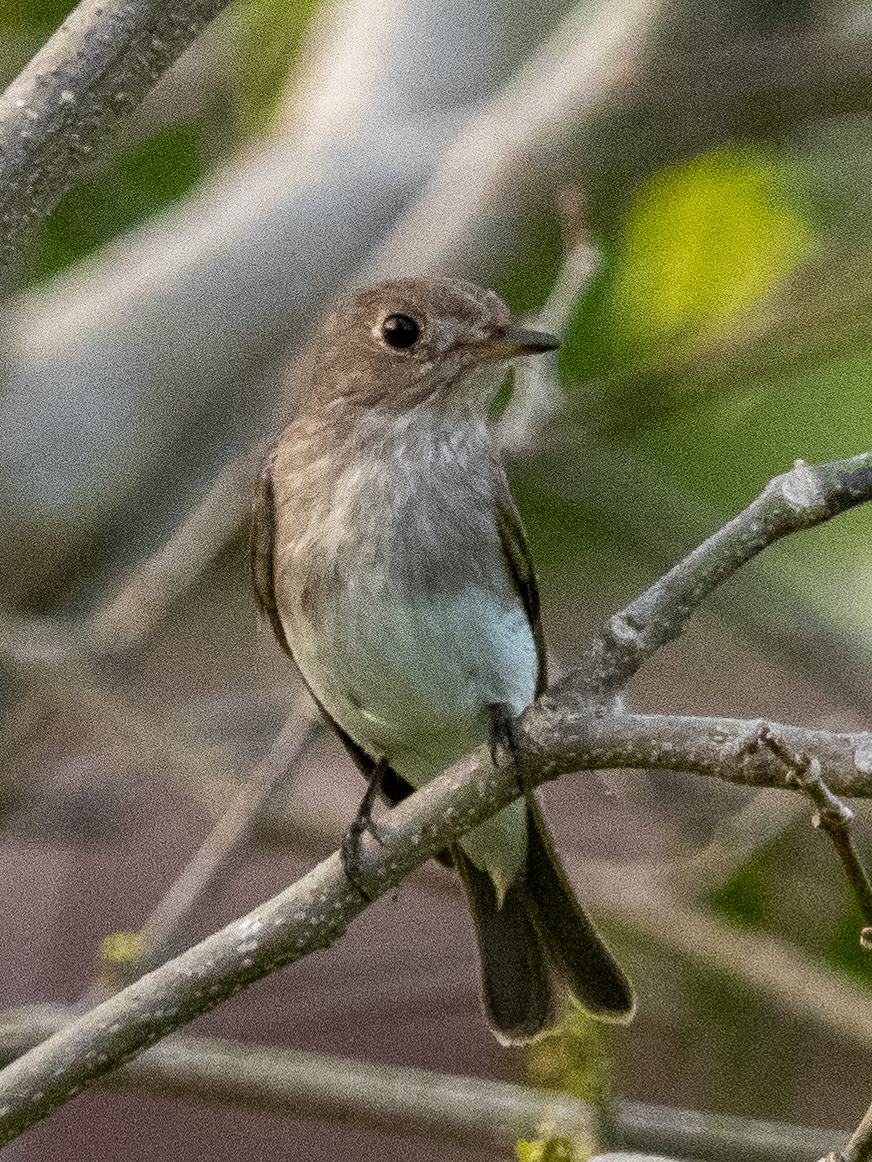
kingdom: Animalia
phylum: Chordata
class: Aves
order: Passeriformes
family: Muscicapidae
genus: Muscicapa
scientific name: Muscicapa latirostris
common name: Asian brown flycatcher
